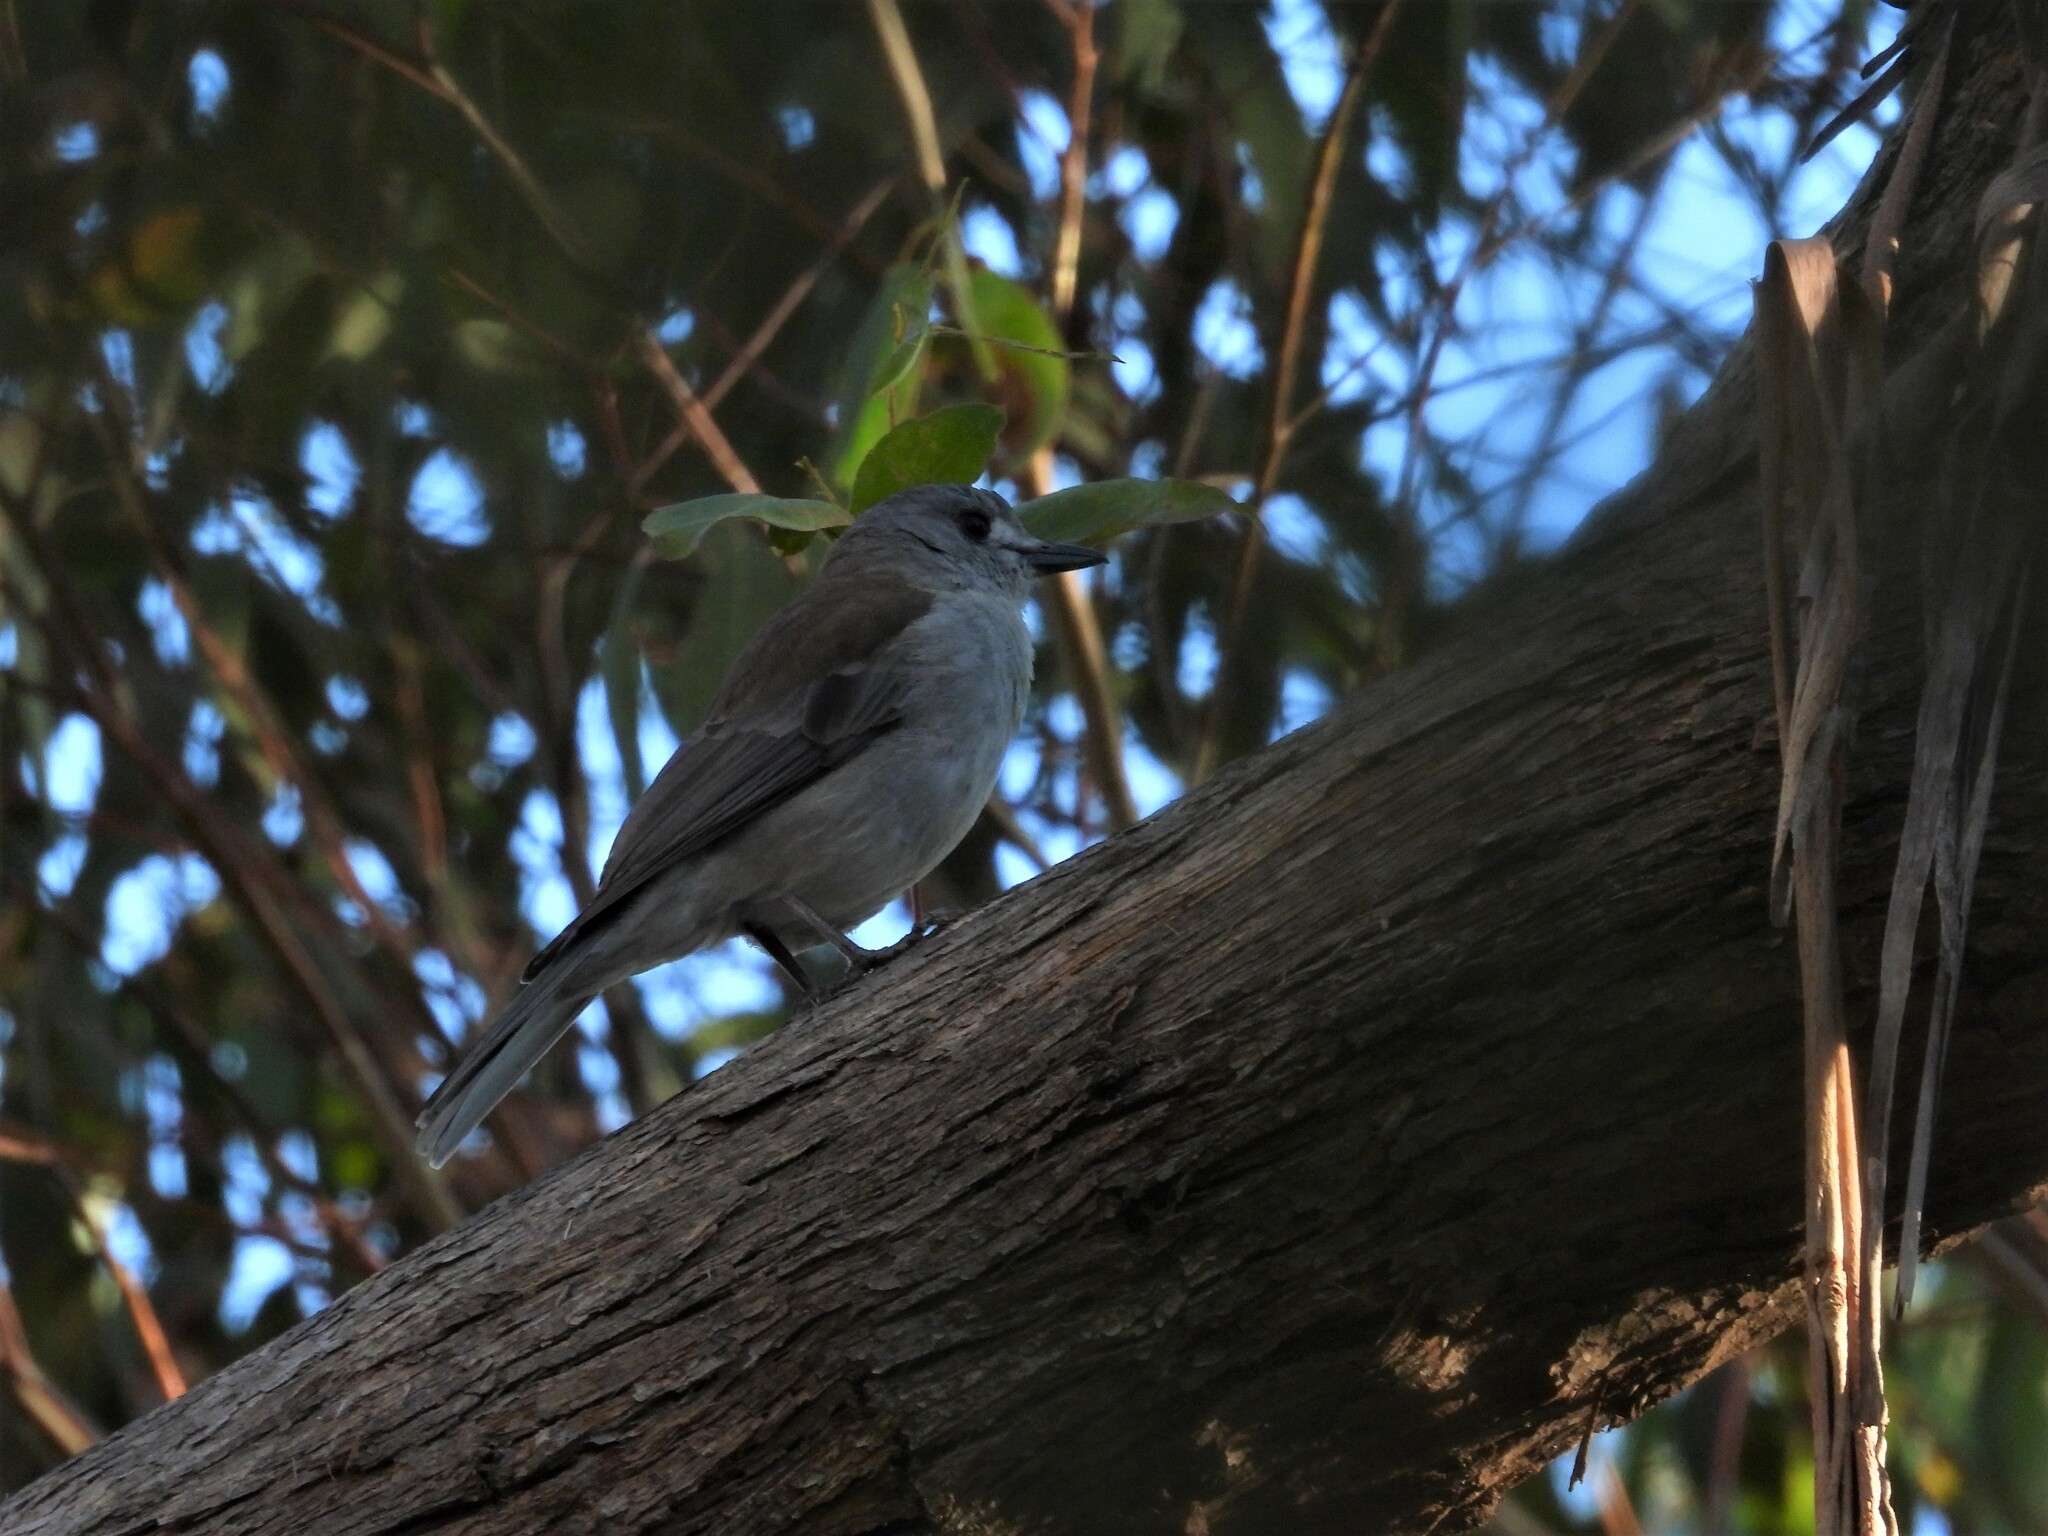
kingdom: Animalia
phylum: Chordata
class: Aves
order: Passeriformes
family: Pachycephalidae
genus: Colluricincla
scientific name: Colluricincla harmonica
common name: Grey shrikethrush
